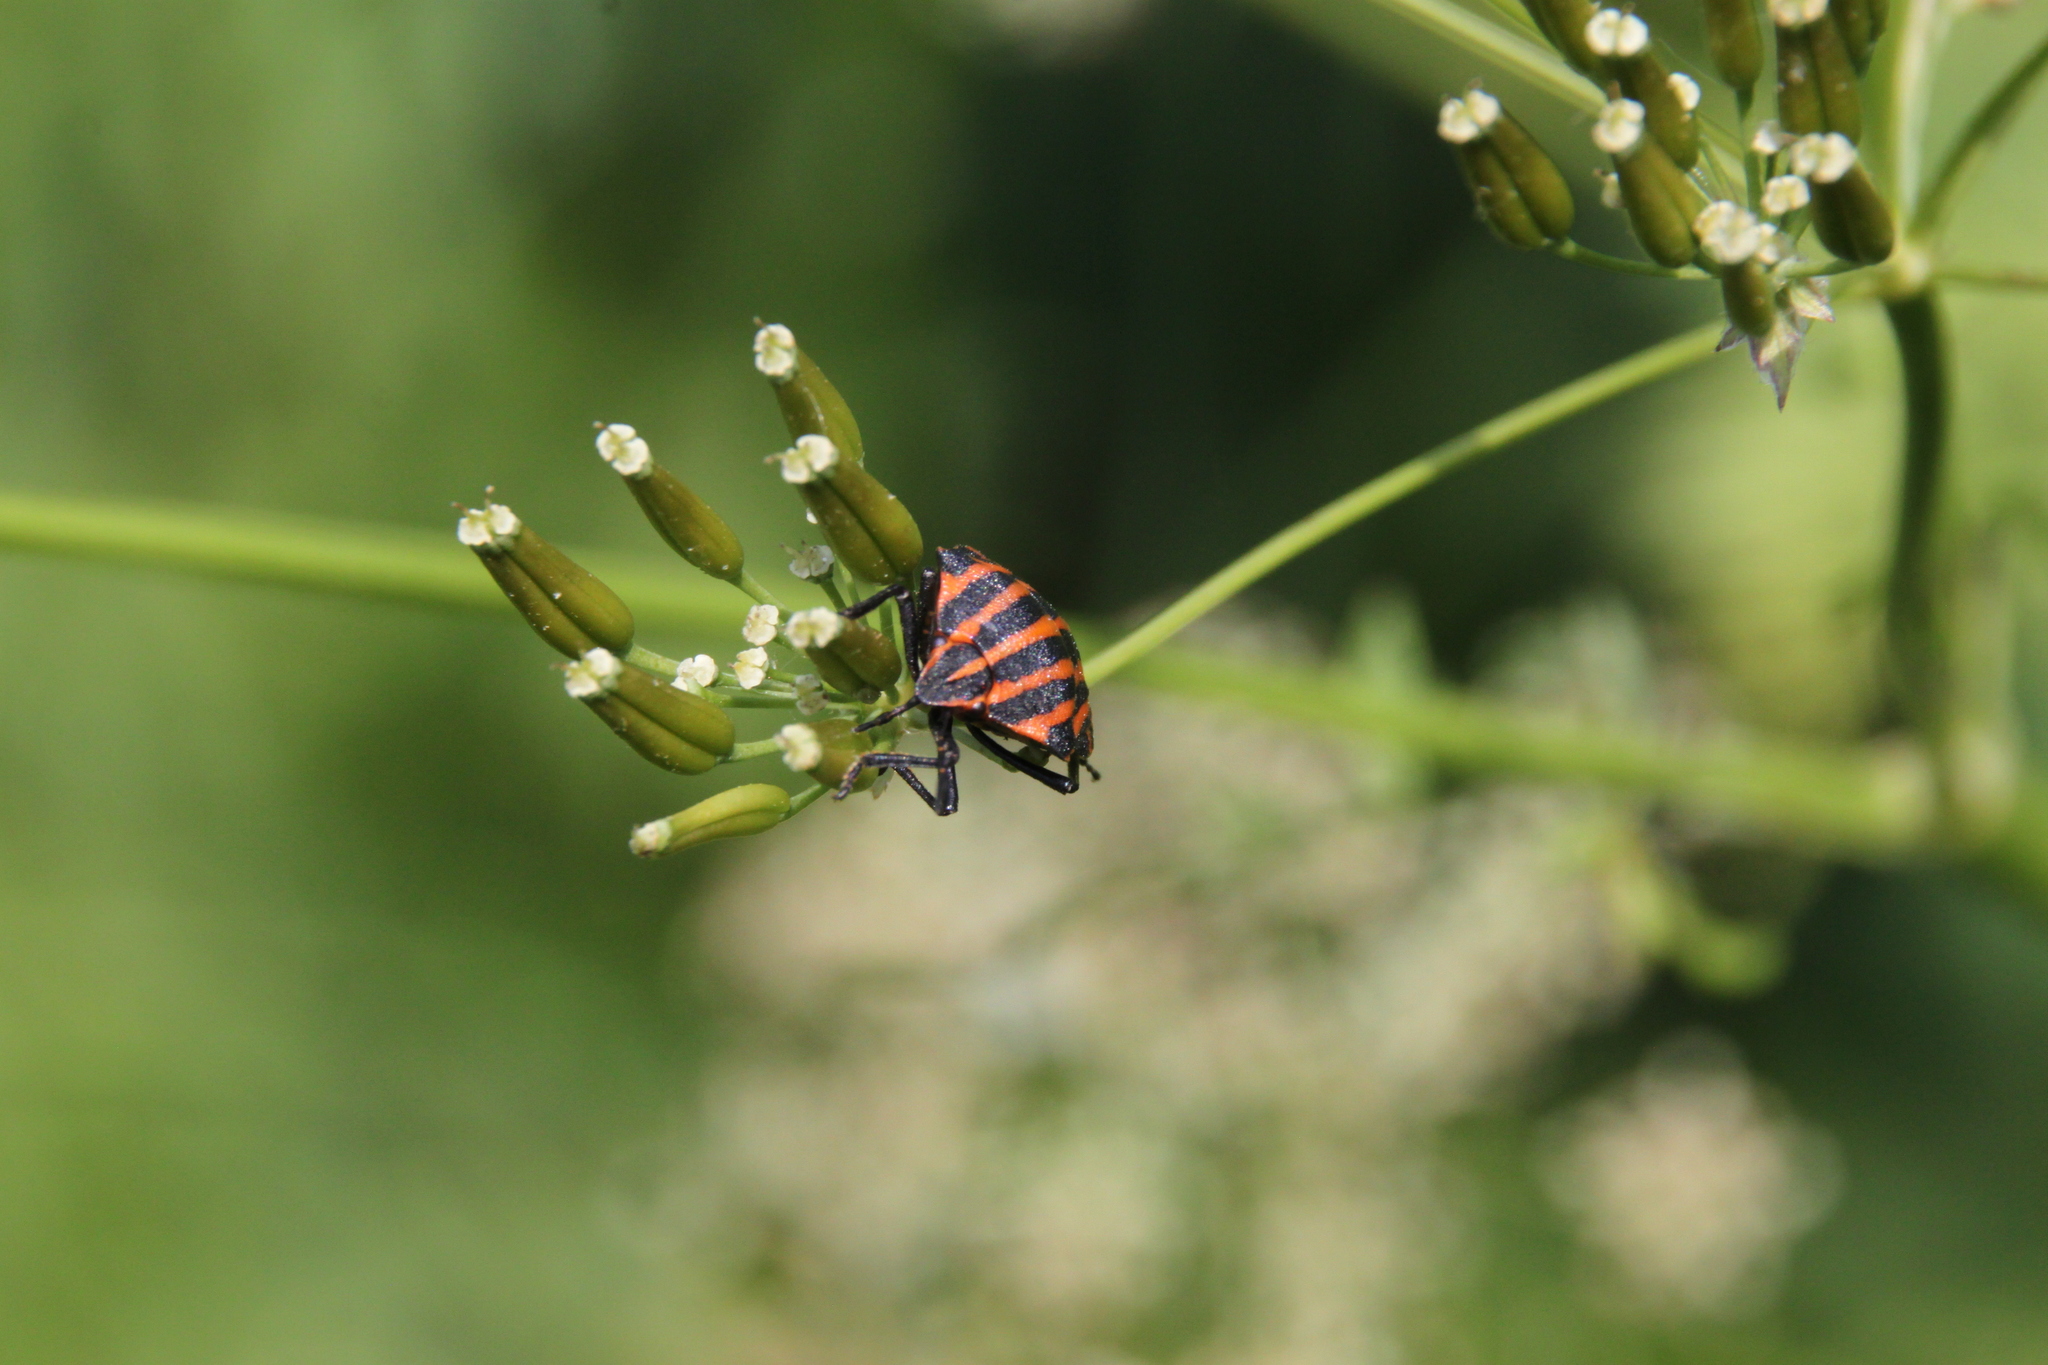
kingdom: Animalia
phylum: Arthropoda
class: Insecta
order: Hemiptera
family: Pentatomidae
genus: Graphosoma
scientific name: Graphosoma italicum
